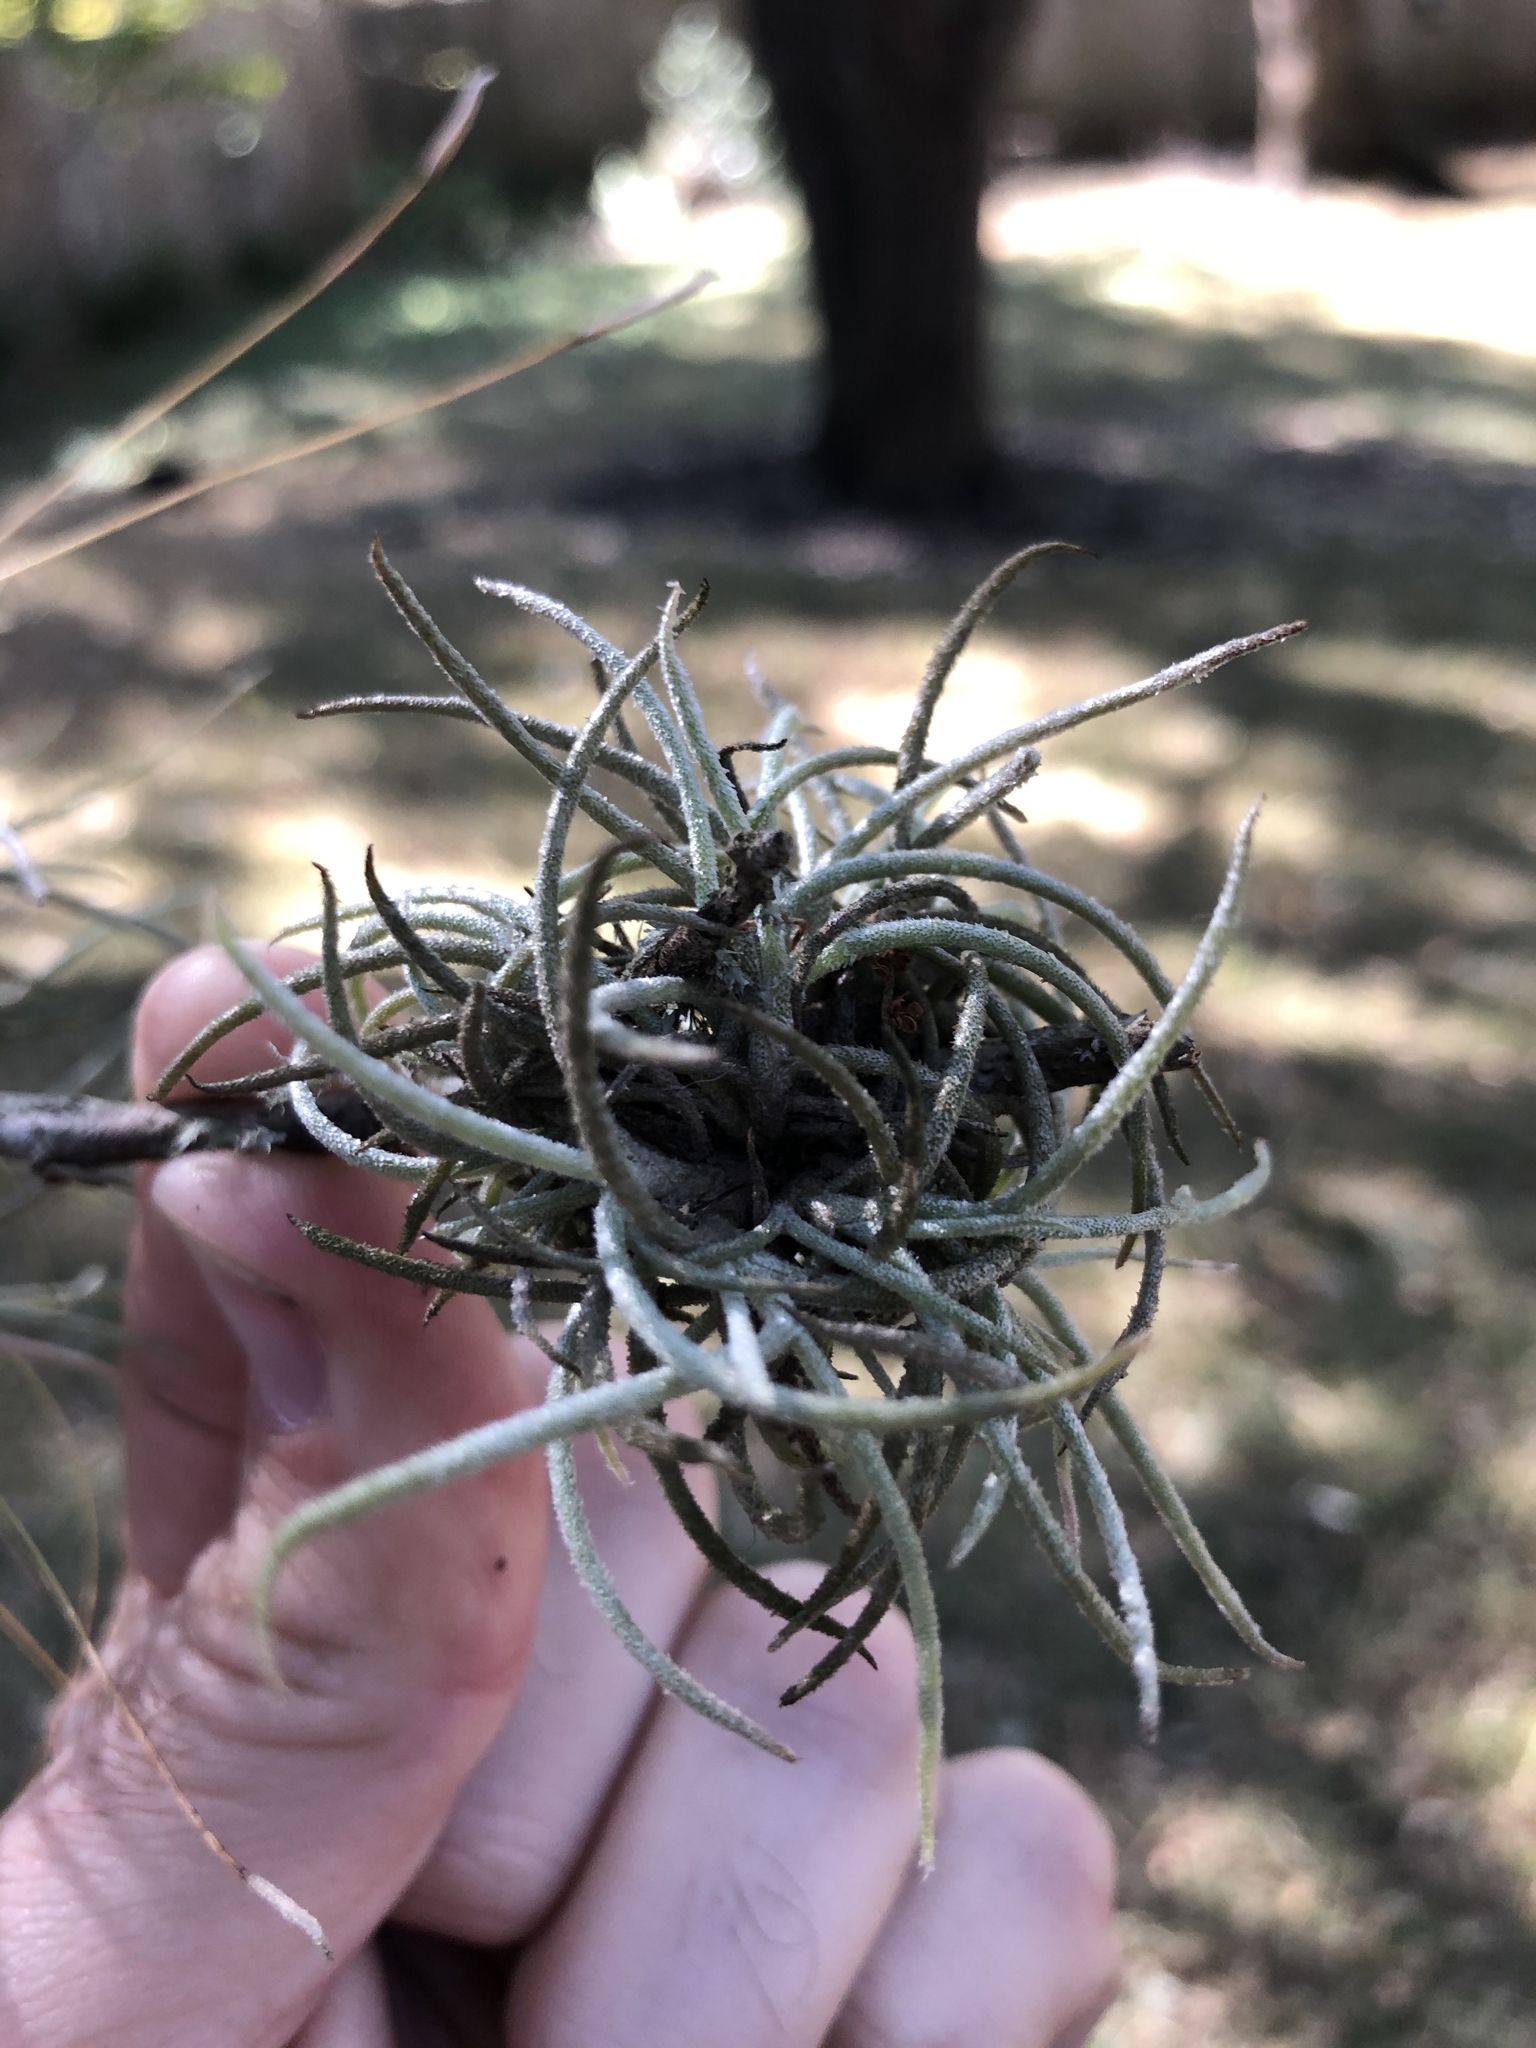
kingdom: Plantae
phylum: Tracheophyta
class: Liliopsida
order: Poales
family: Bromeliaceae
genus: Tillandsia
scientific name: Tillandsia recurvata
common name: Small ballmoss
